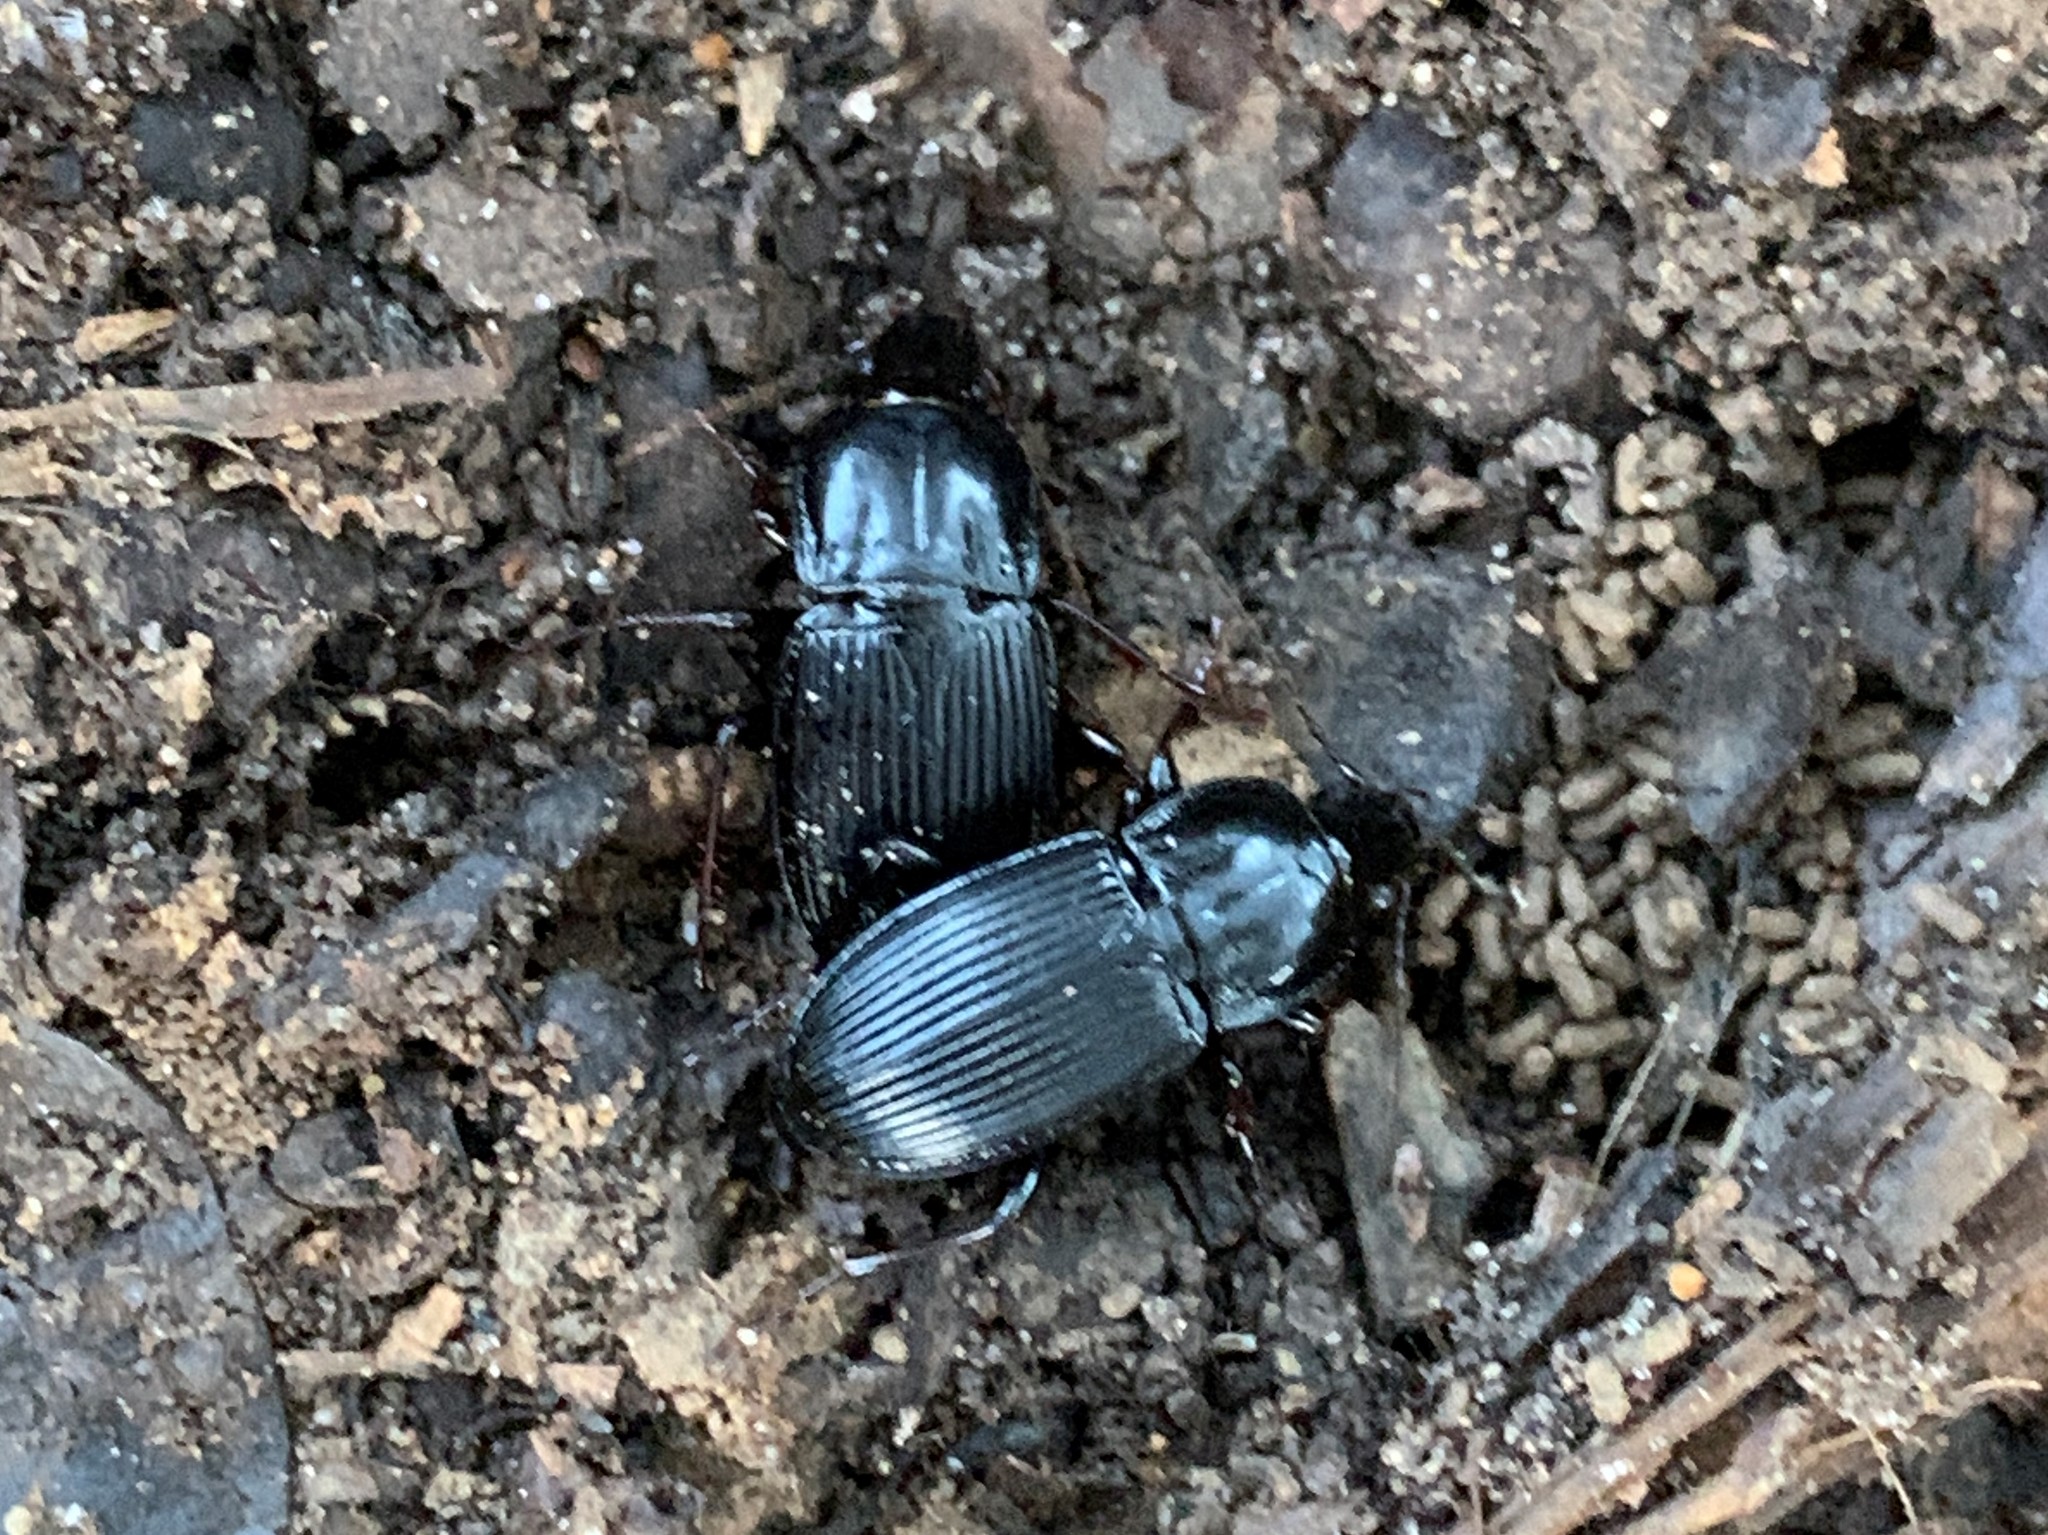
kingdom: Animalia
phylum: Arthropoda
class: Insecta
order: Coleoptera
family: Carabidae
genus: Abacidus
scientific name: Abacidus
